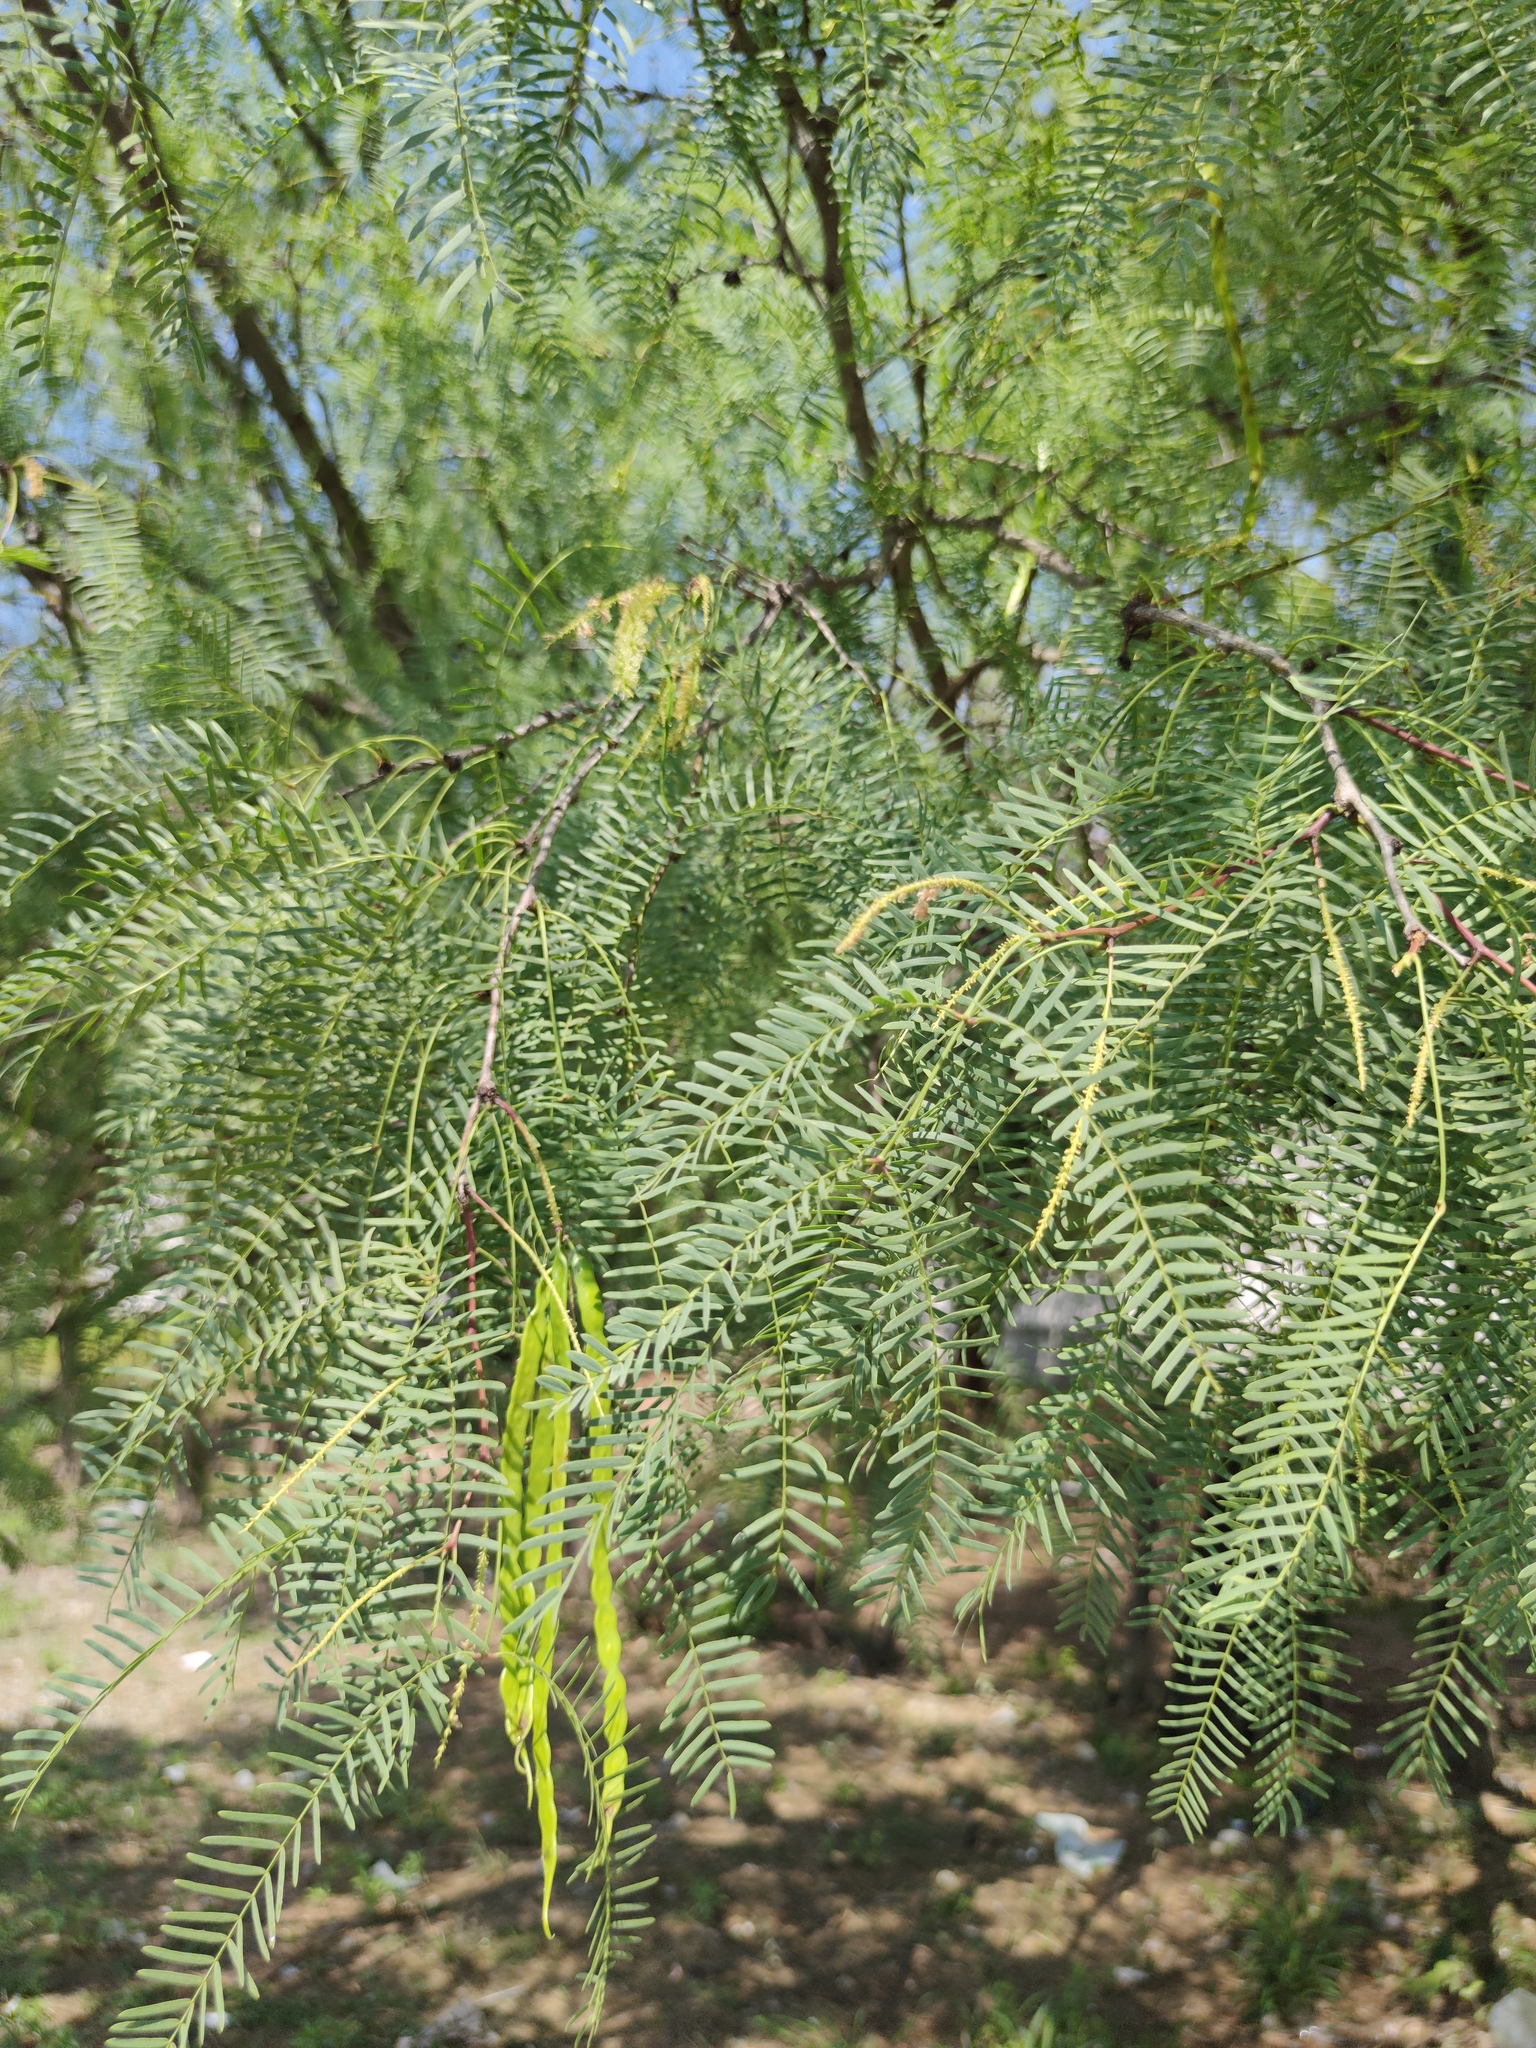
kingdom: Plantae
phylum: Tracheophyta
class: Magnoliopsida
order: Fabales
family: Fabaceae
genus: Prosopis
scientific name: Prosopis glandulosa
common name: Honey mesquite
